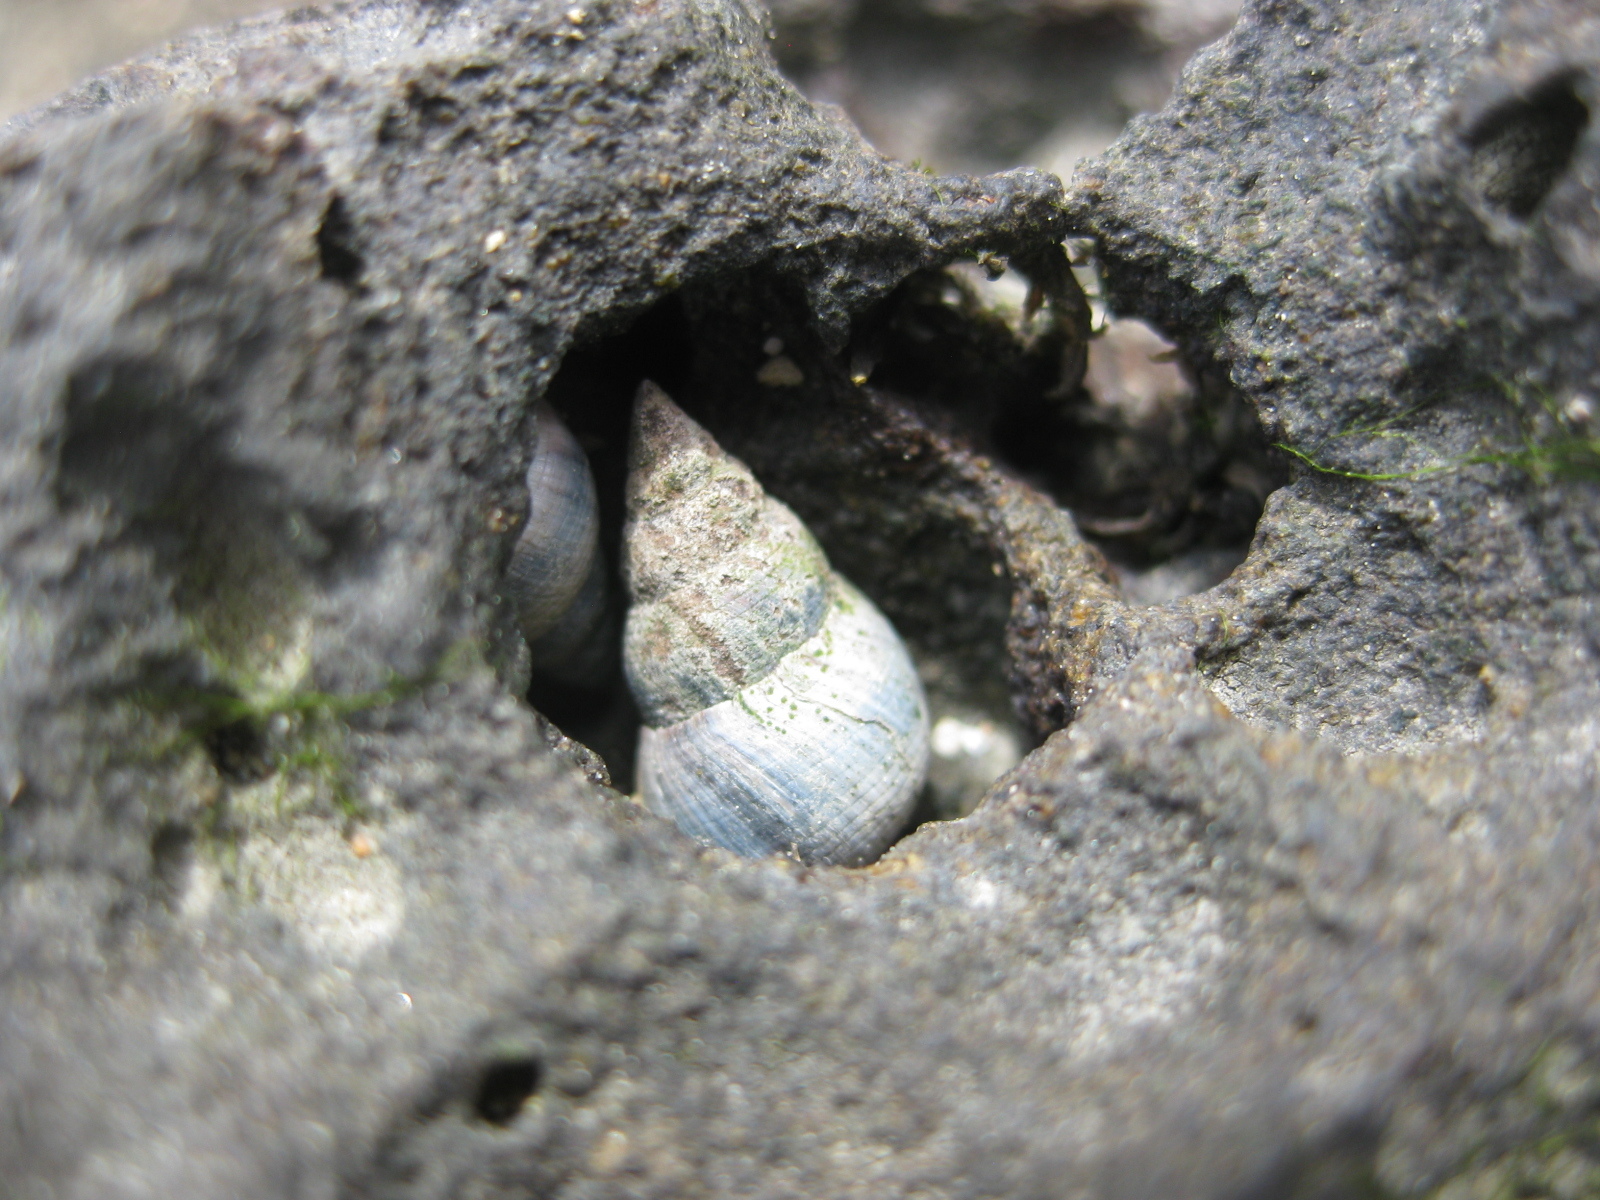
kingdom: Animalia
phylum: Mollusca
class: Gastropoda
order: Littorinimorpha
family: Littorinidae
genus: Austrolittorina
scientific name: Austrolittorina antipodum
